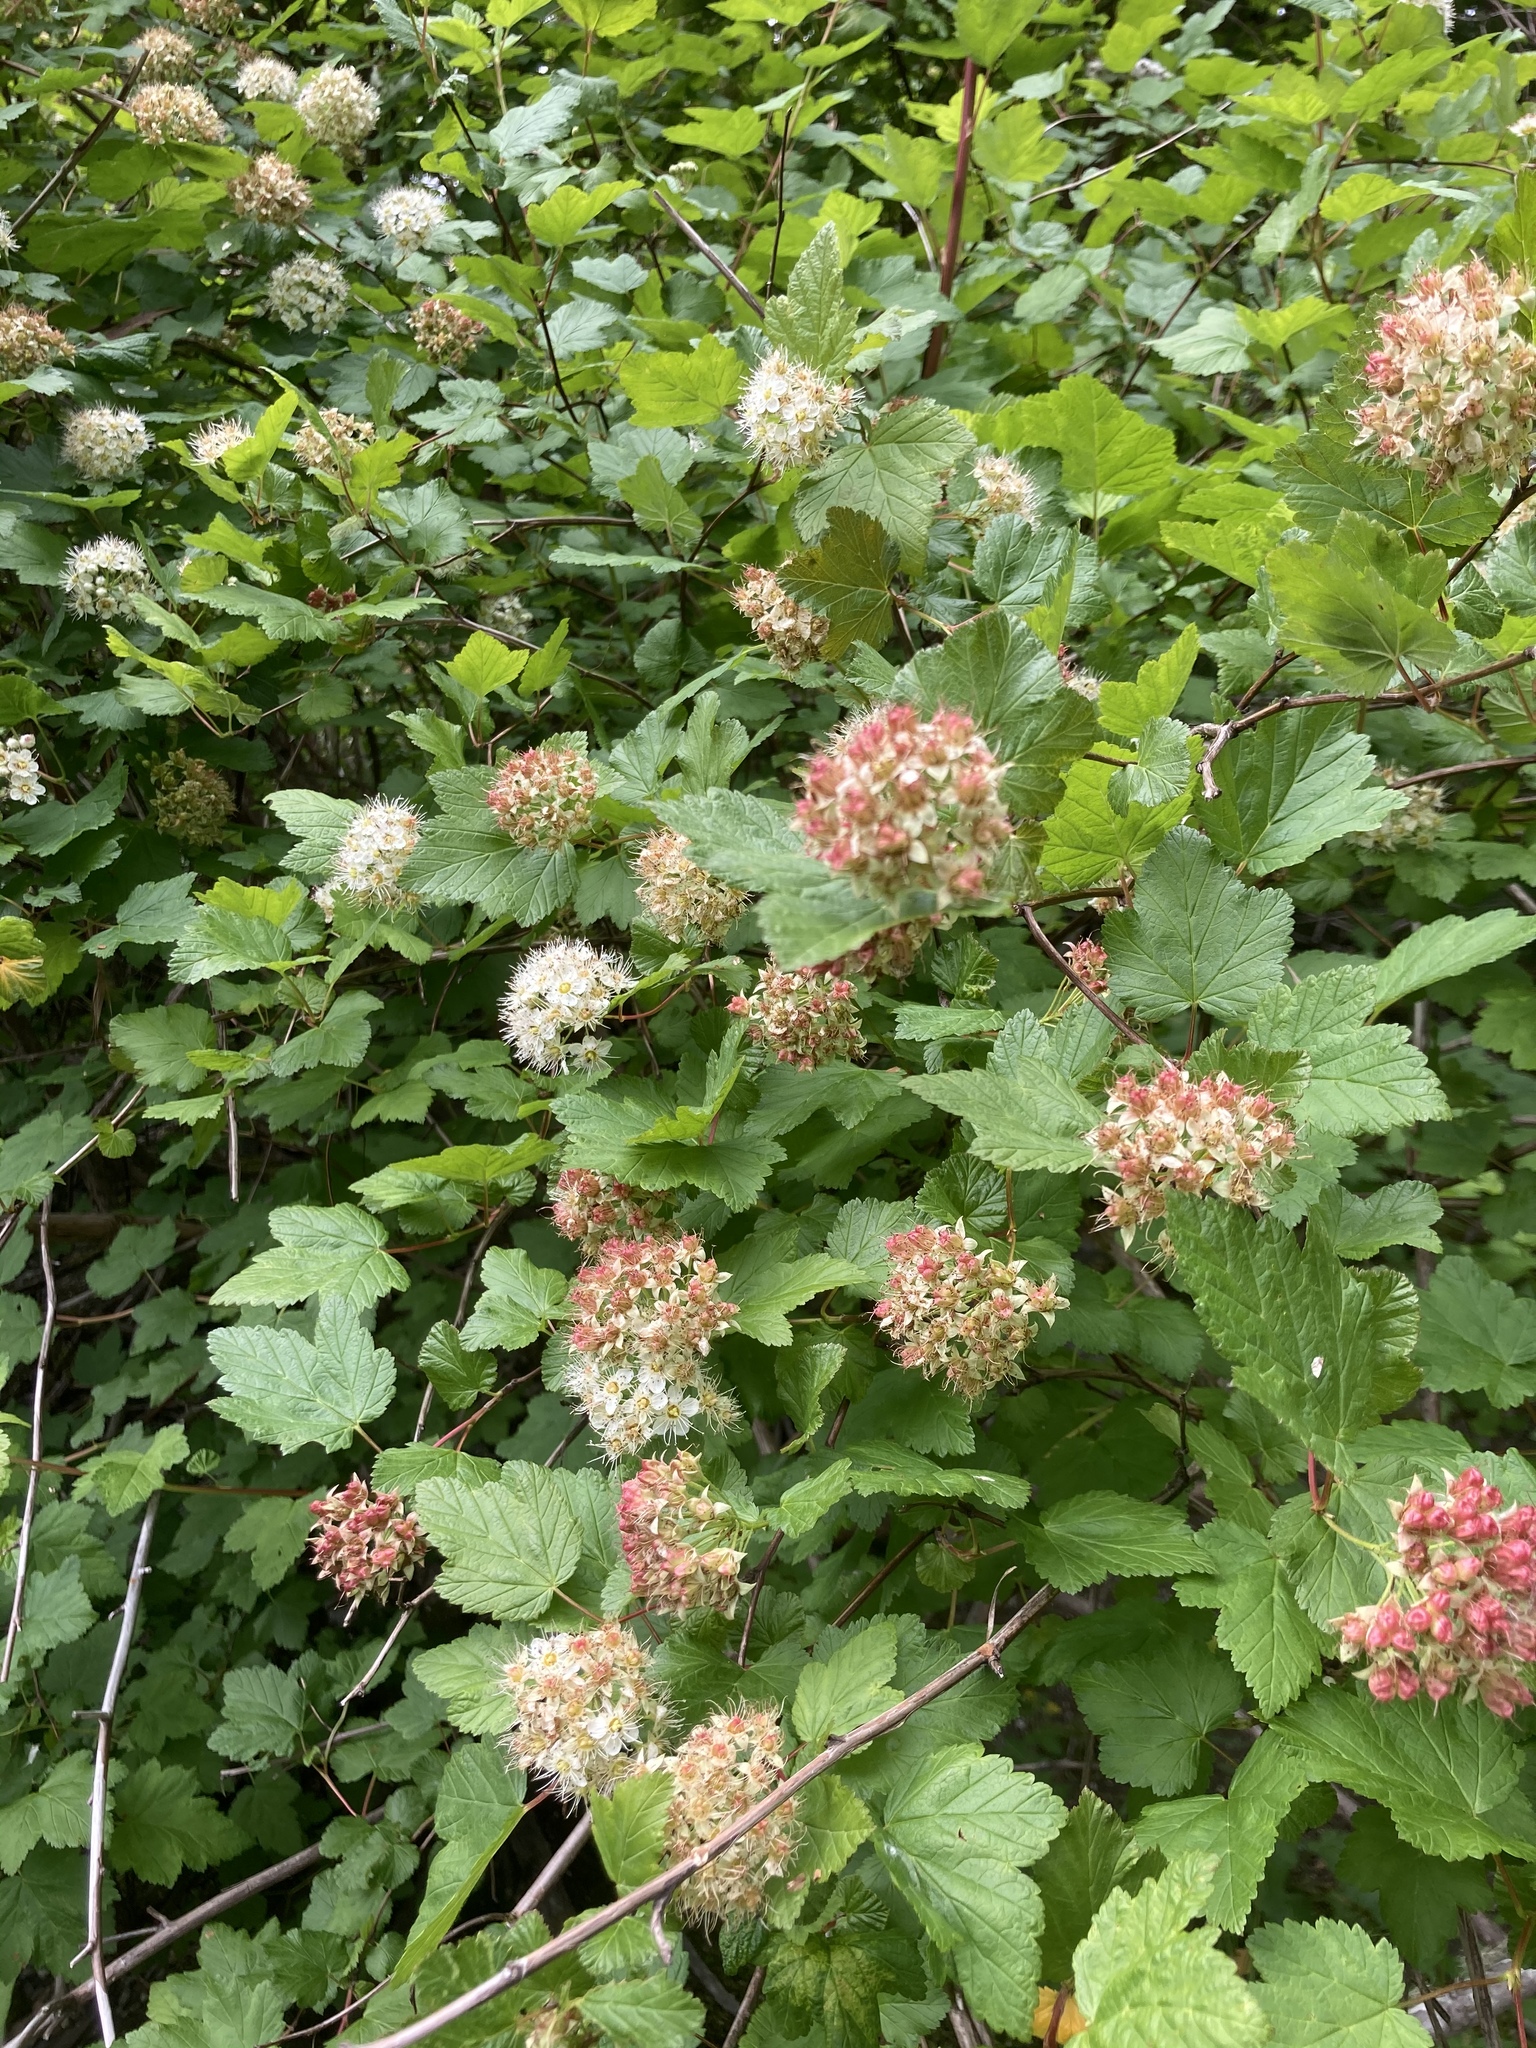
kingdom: Plantae
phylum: Tracheophyta
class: Magnoliopsida
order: Rosales
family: Rosaceae
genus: Physocarpus
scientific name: Physocarpus capitatus
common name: Pacific ninebark
